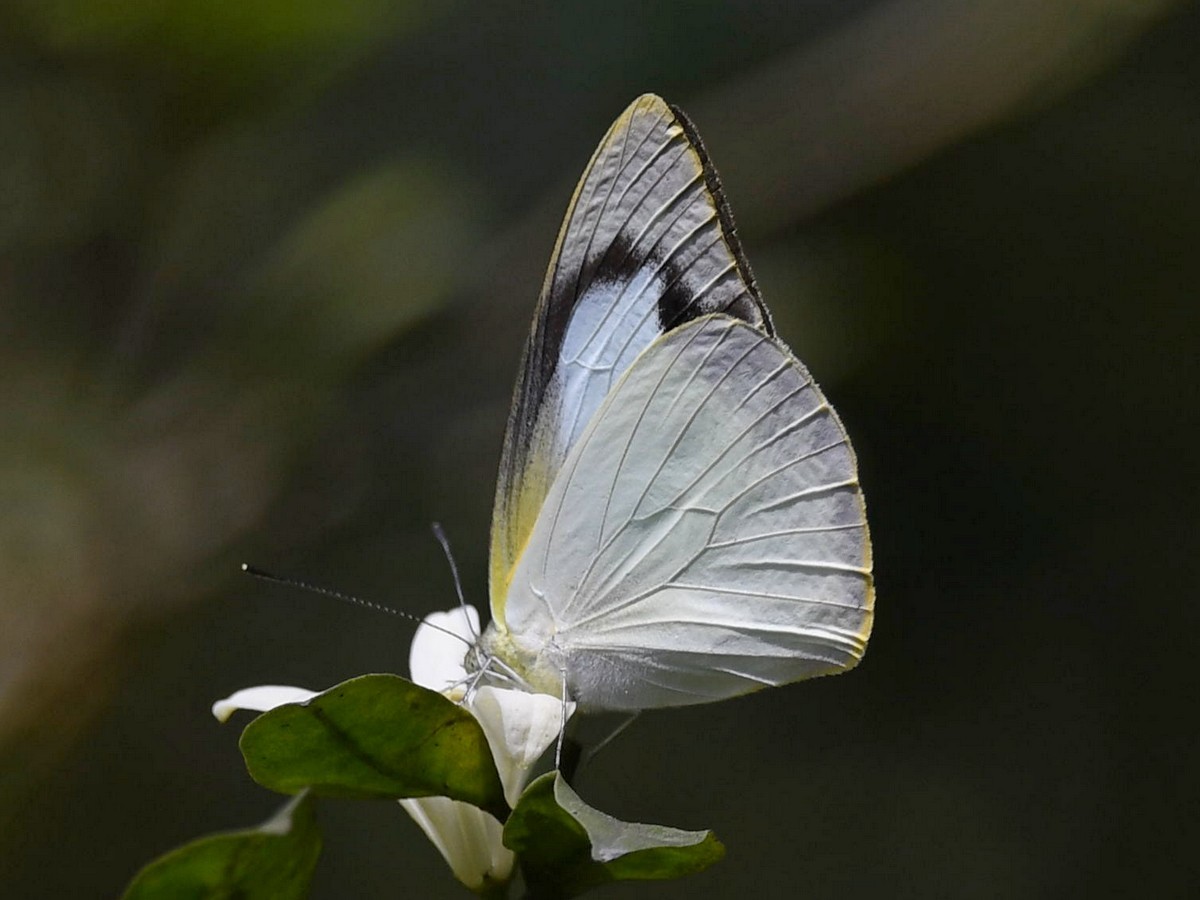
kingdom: Animalia
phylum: Arthropoda
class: Insecta
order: Lepidoptera
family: Pieridae
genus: Appias
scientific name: Appias albina
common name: Common albatross
